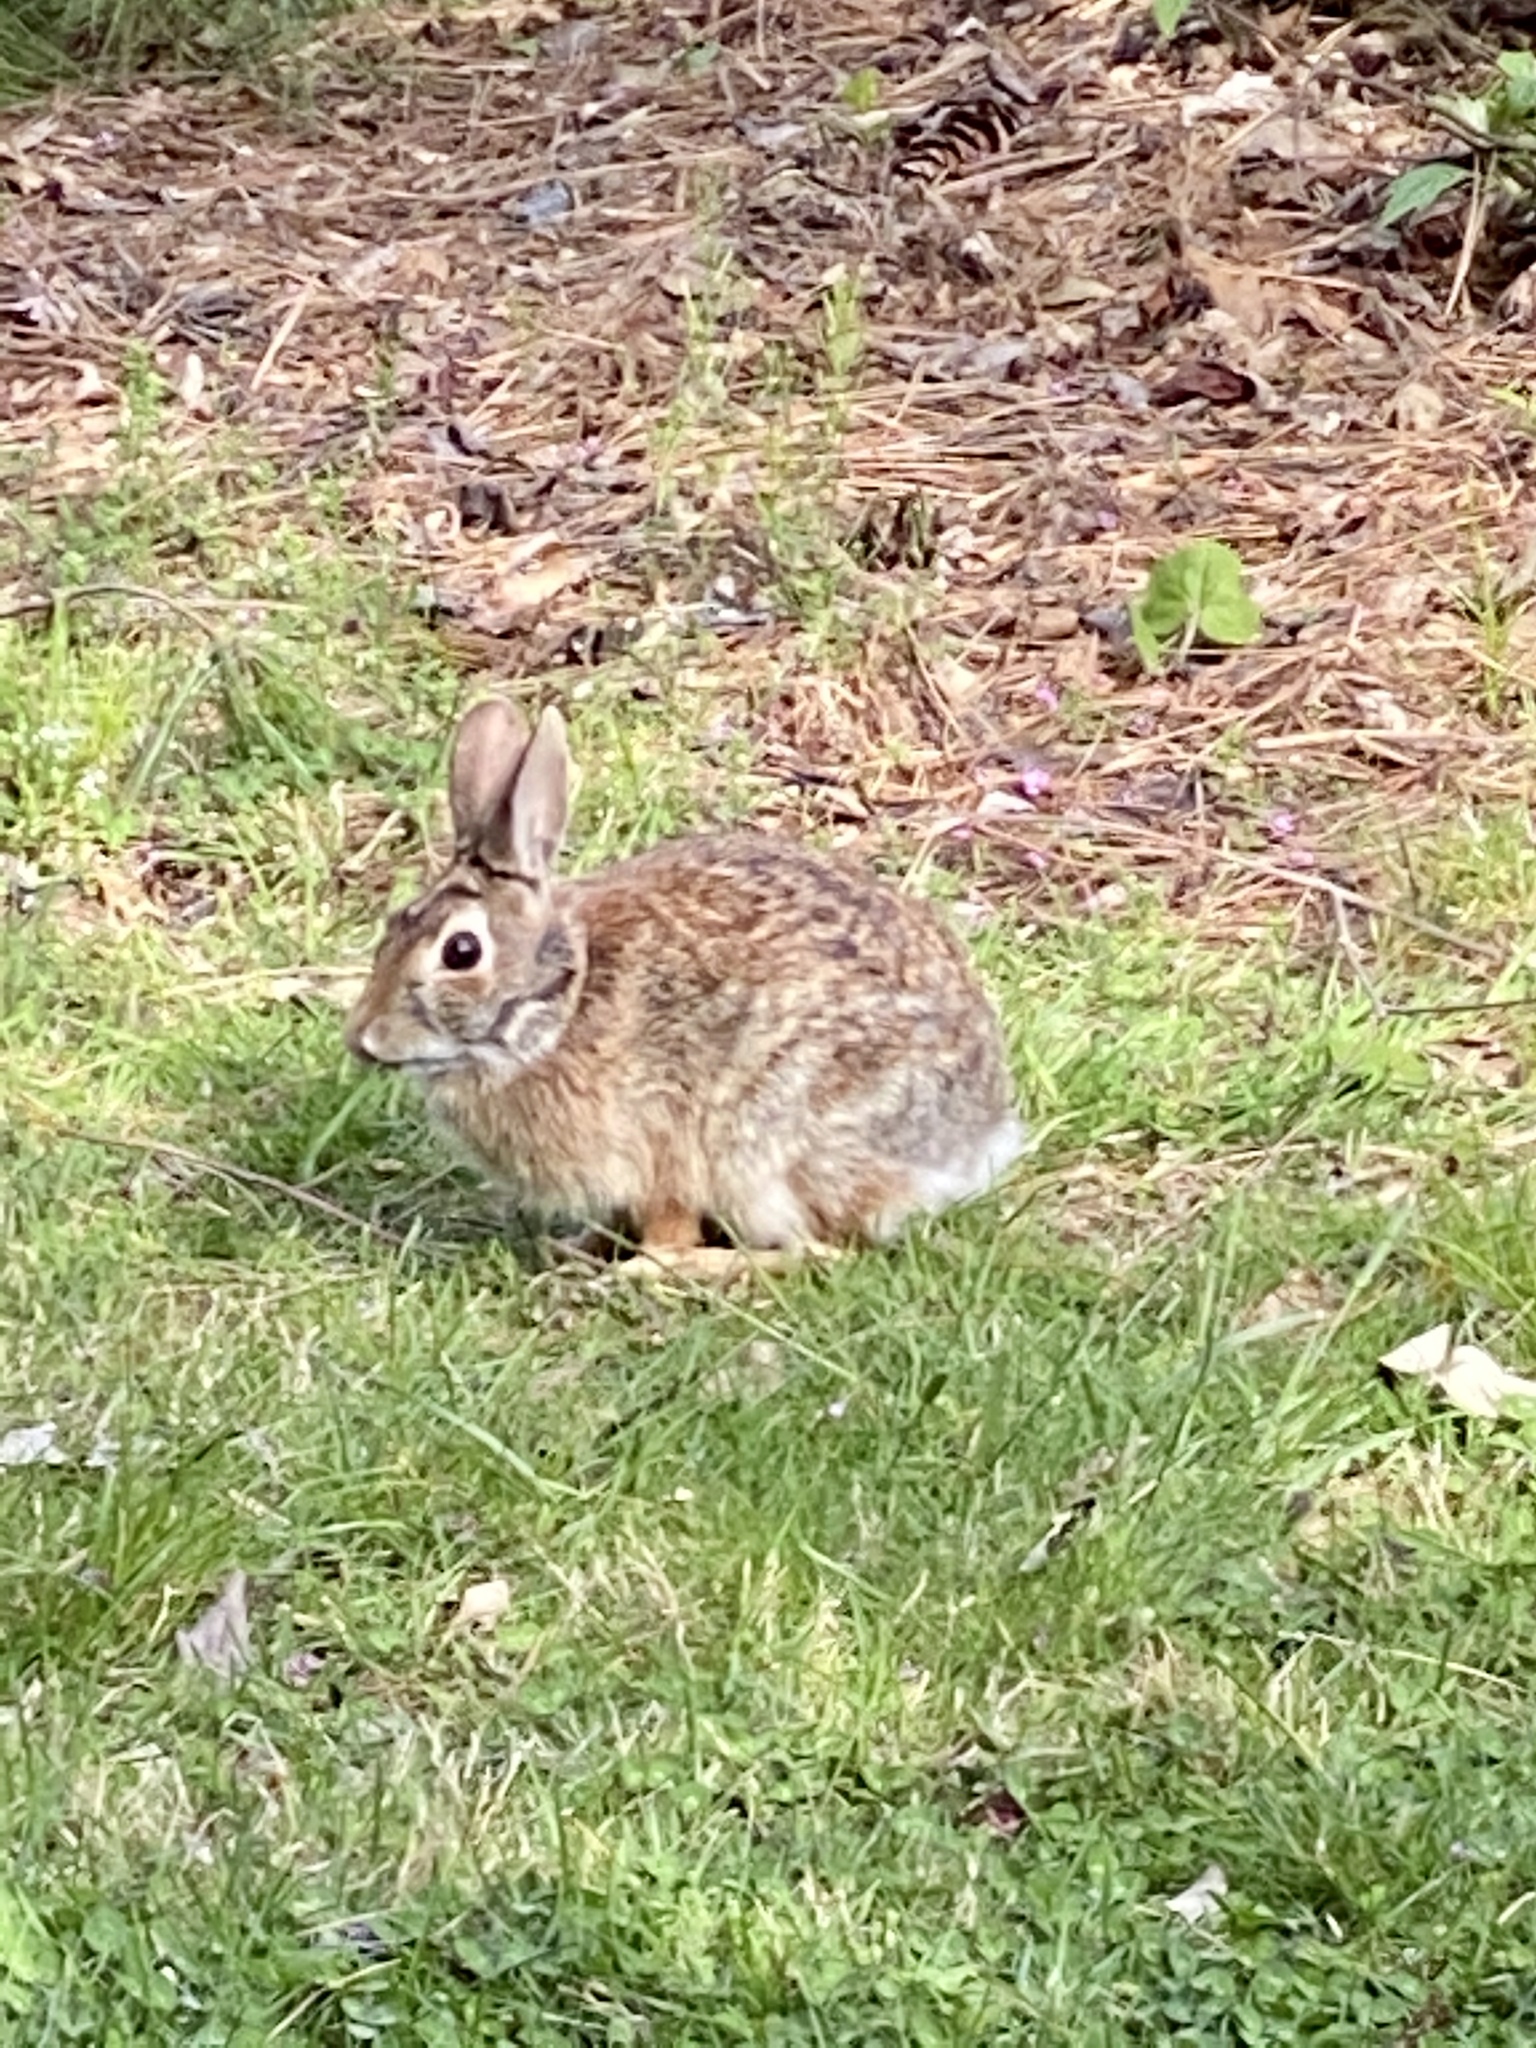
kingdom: Animalia
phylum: Chordata
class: Mammalia
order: Lagomorpha
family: Leporidae
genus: Sylvilagus
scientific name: Sylvilagus floridanus
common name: Eastern cottontail
